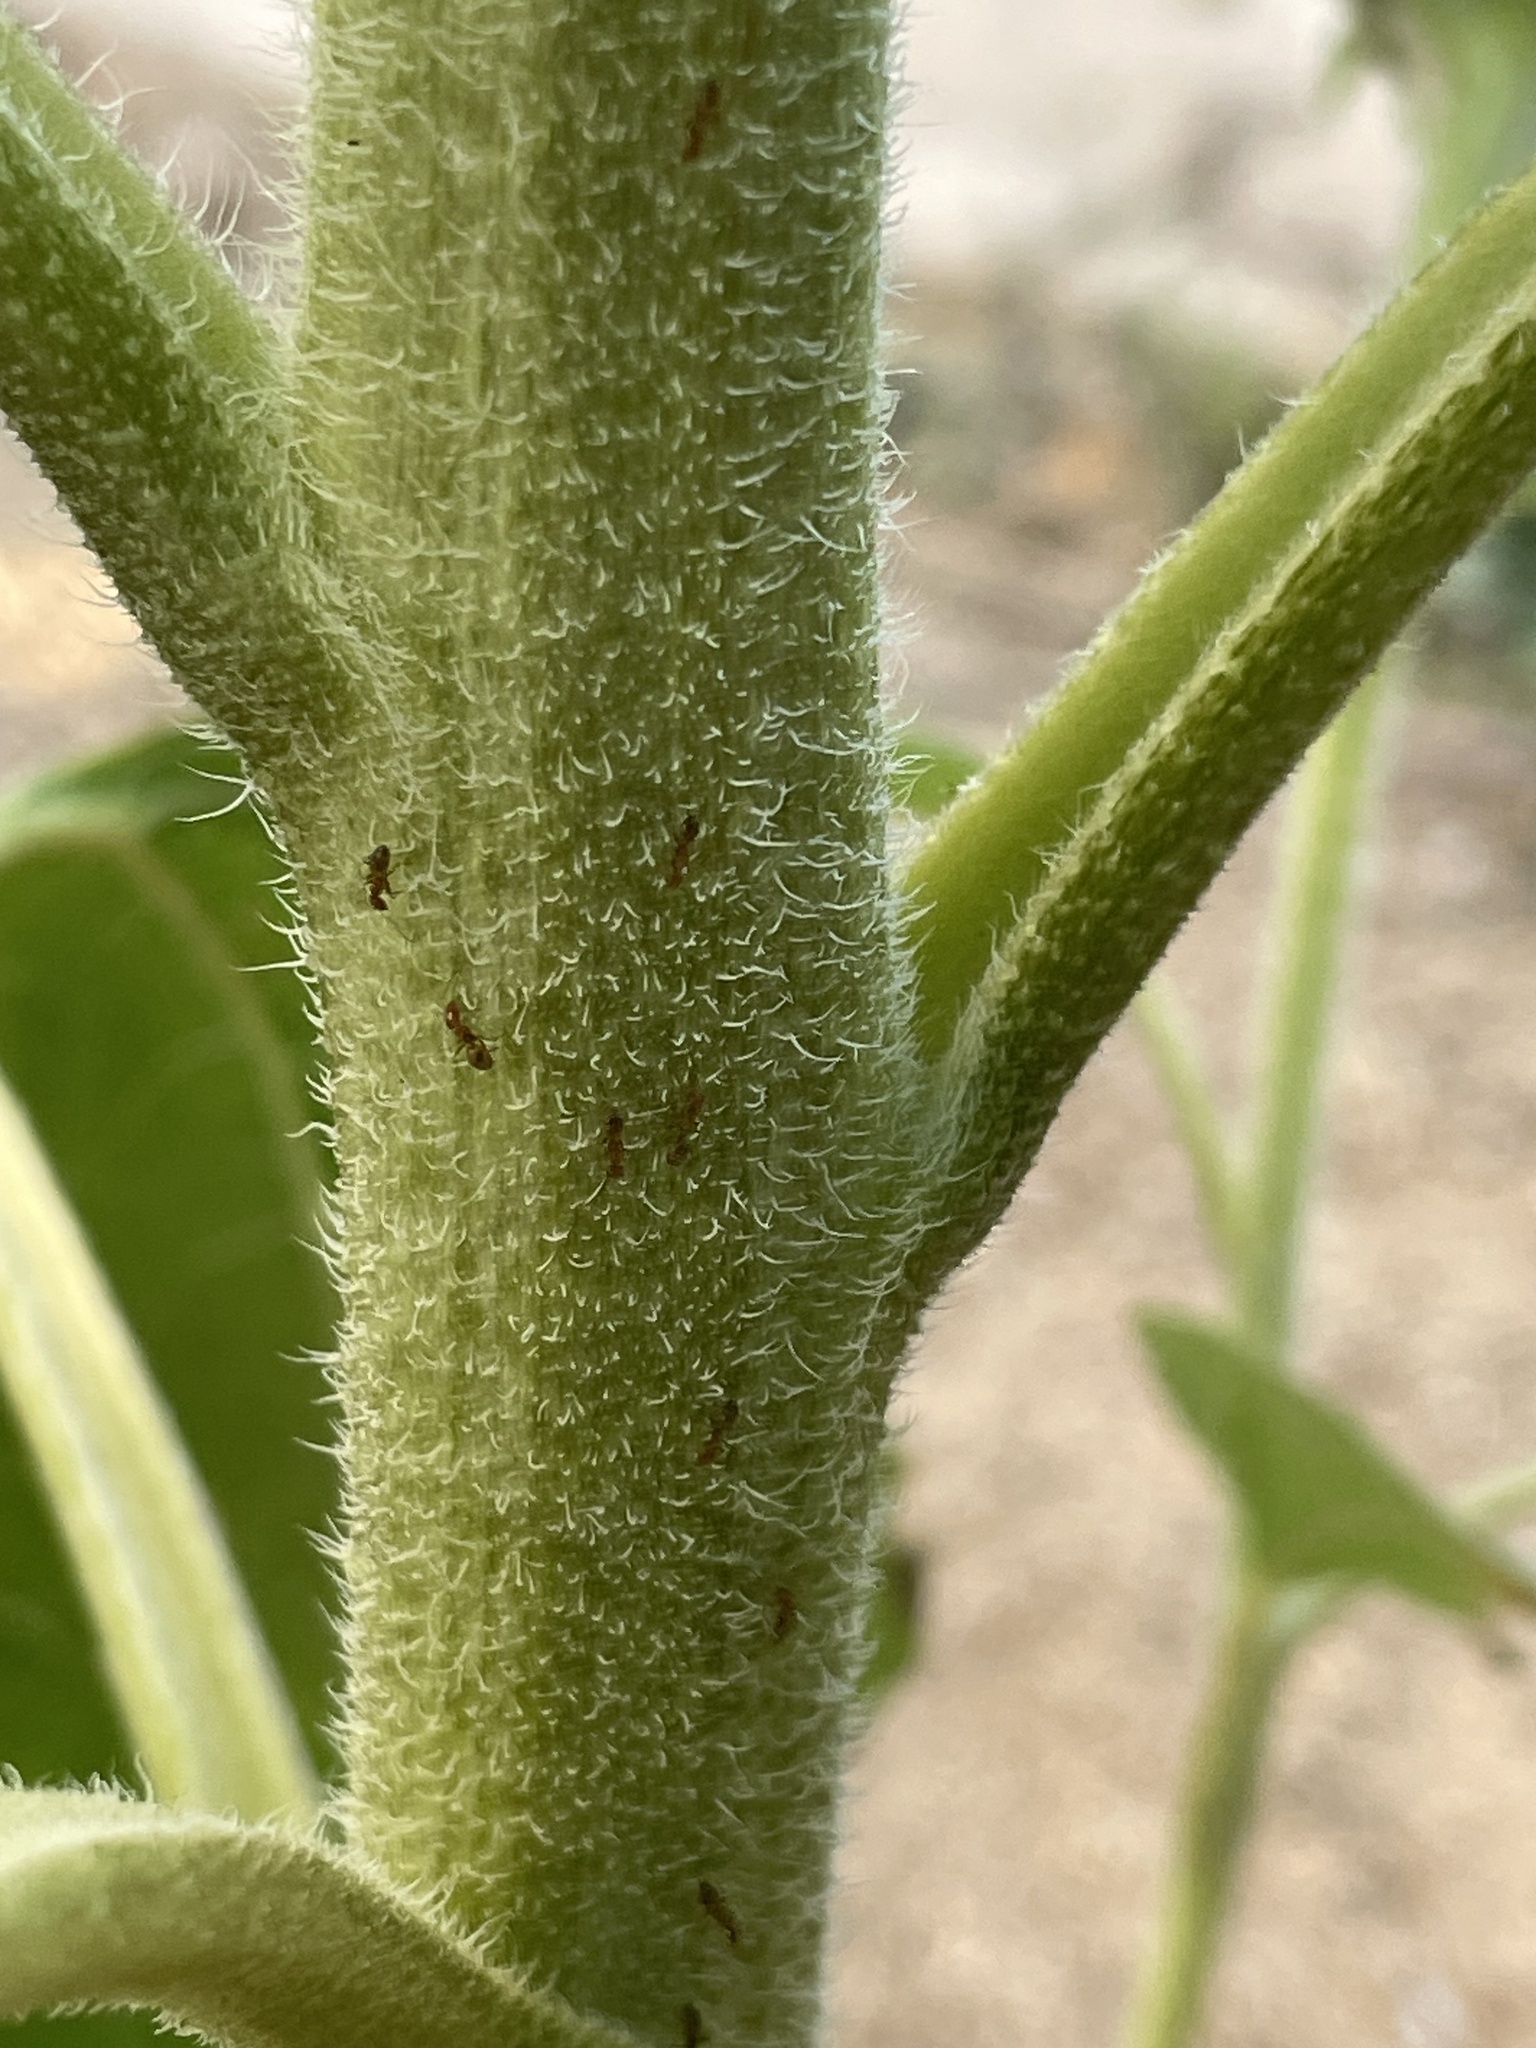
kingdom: Animalia
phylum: Arthropoda
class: Insecta
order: Hymenoptera
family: Formicidae
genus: Forelius
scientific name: Forelius
